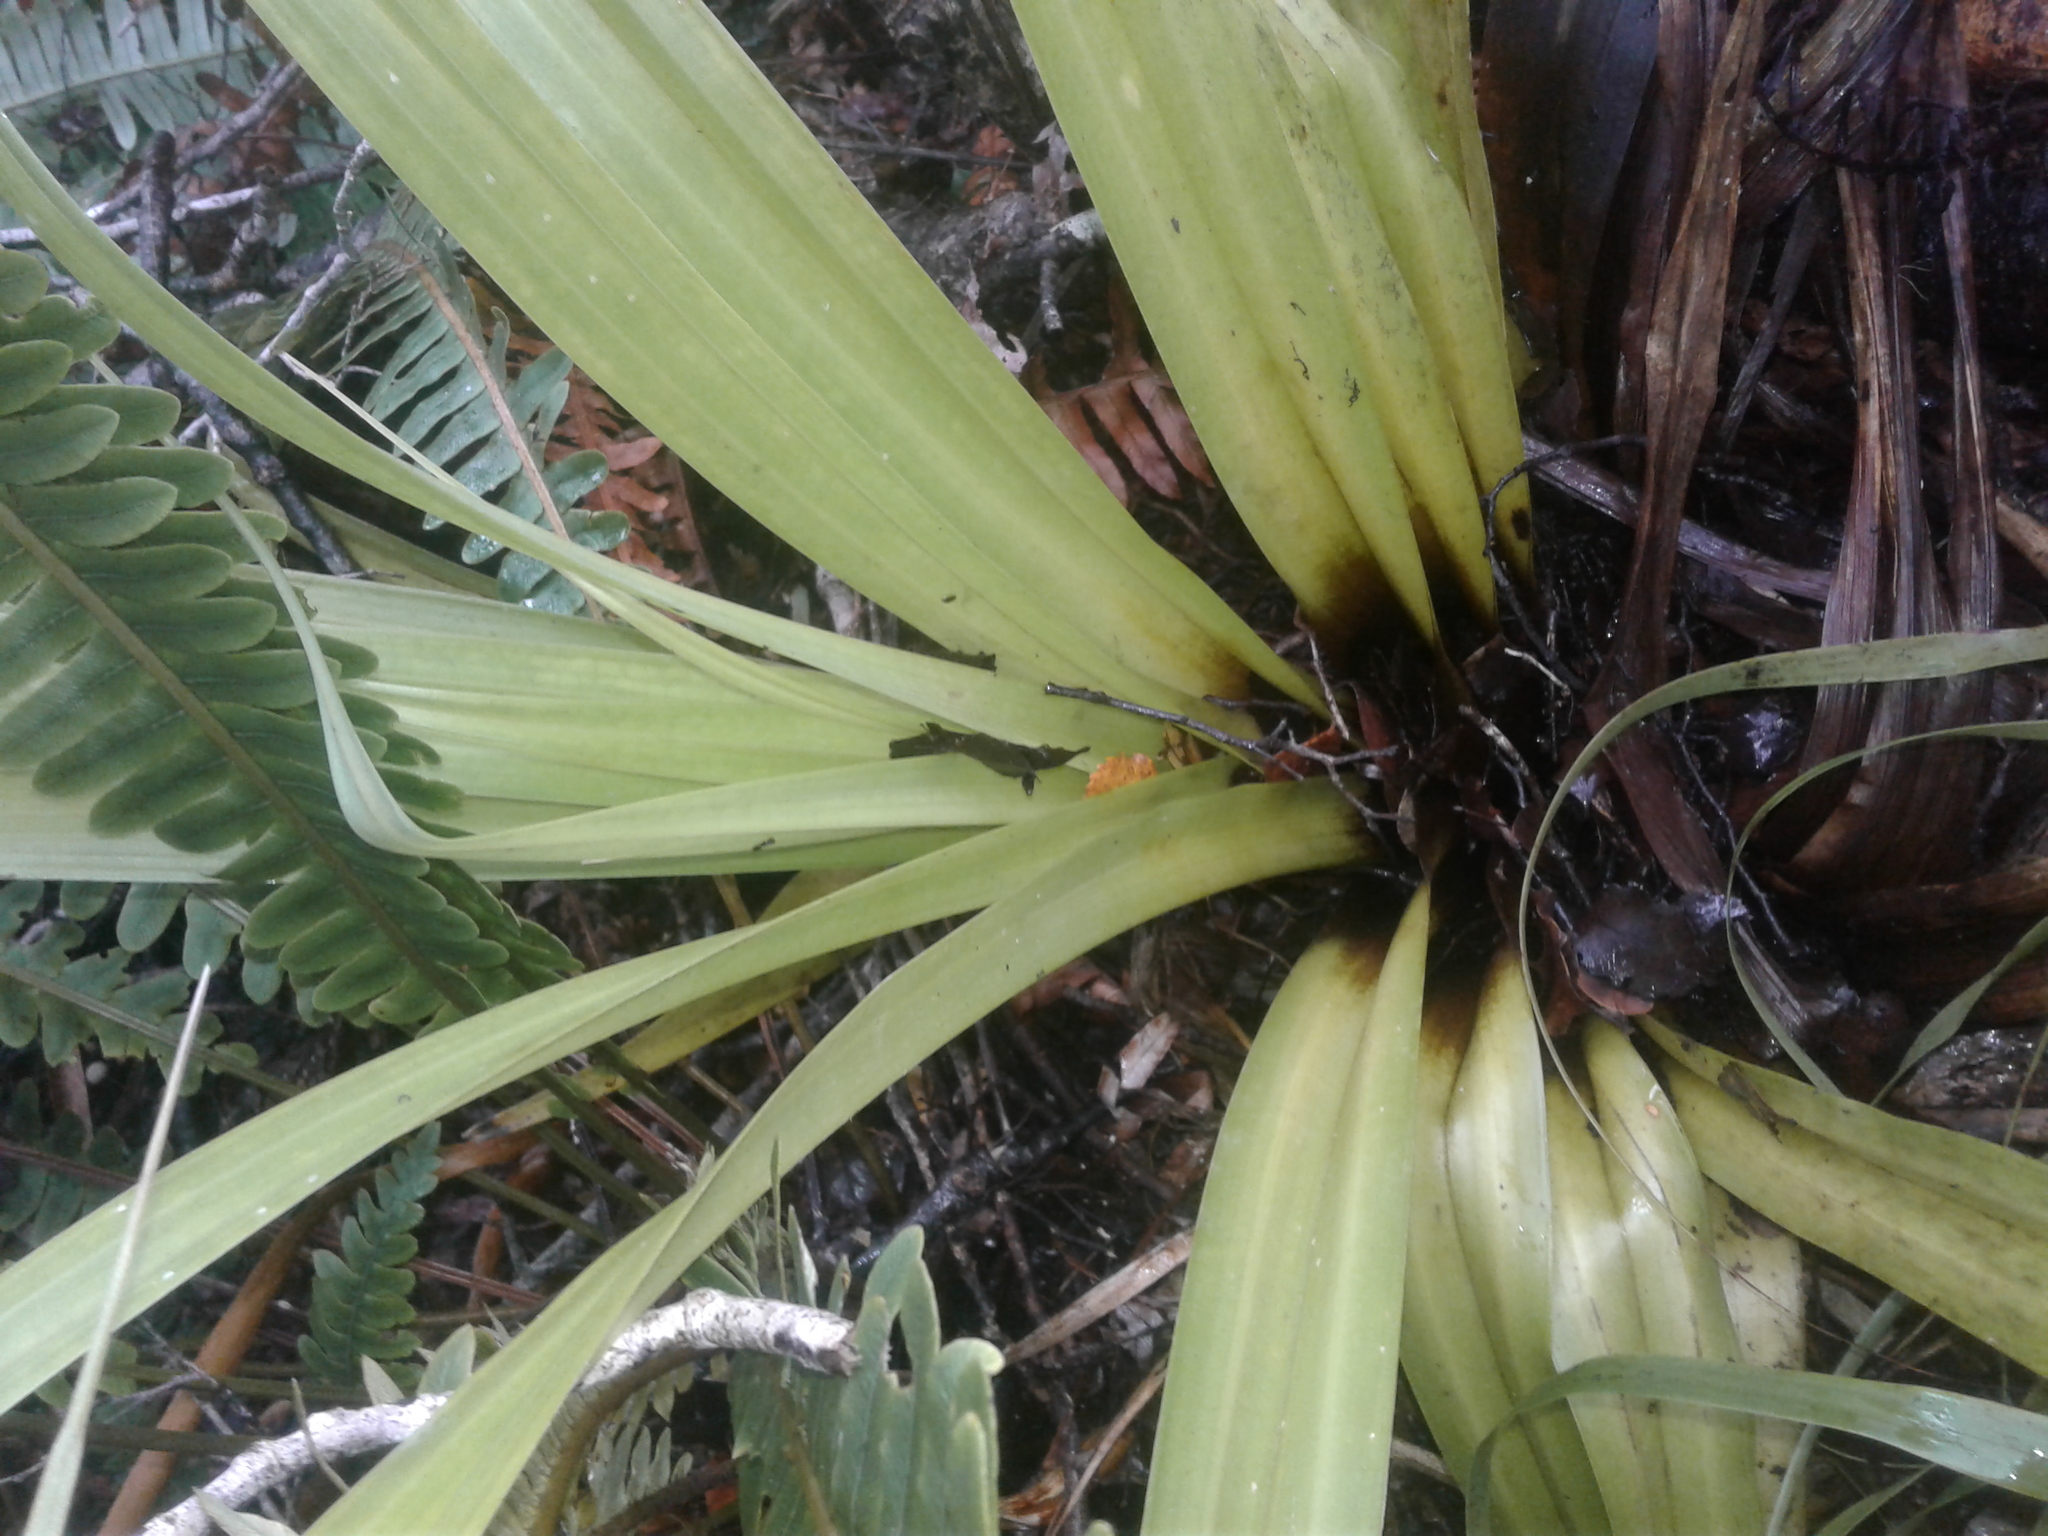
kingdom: Plantae
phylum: Tracheophyta
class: Liliopsida
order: Asparagales
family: Asteliaceae
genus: Astelia
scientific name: Astelia hastata
